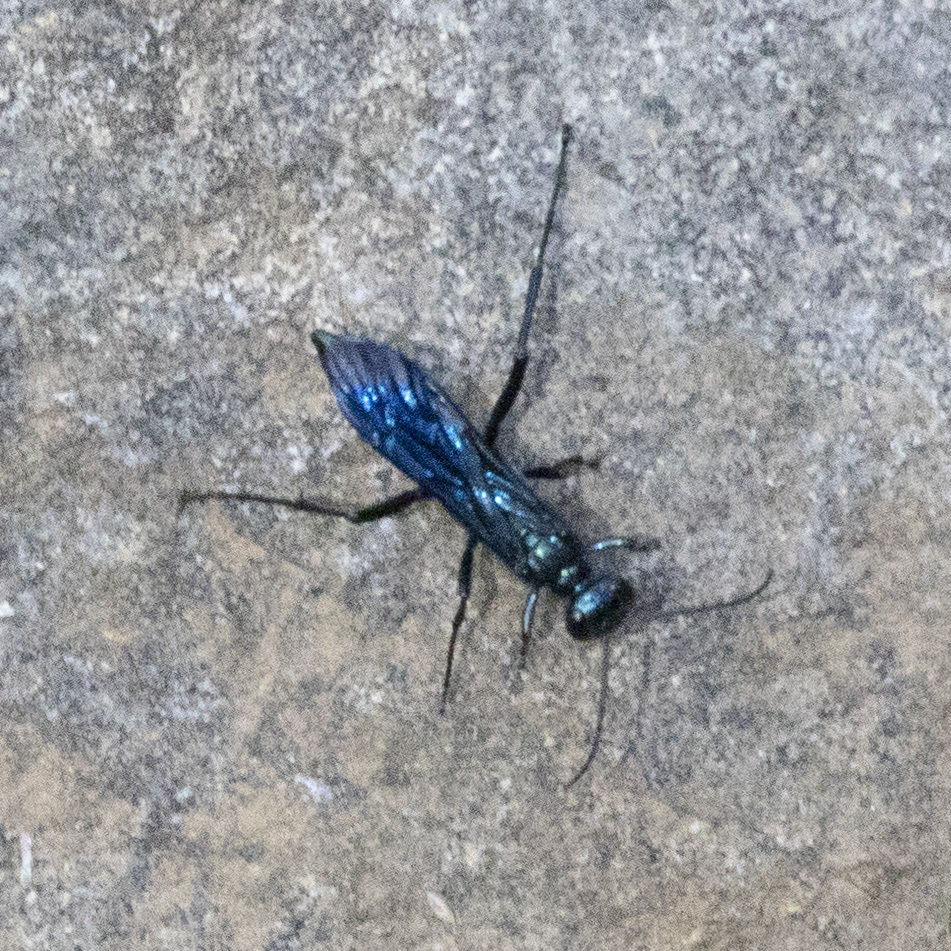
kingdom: Animalia
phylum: Arthropoda
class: Insecta
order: Hymenoptera
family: Sphecidae
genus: Chalybion
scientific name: Chalybion californicum
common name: Mud dauber
